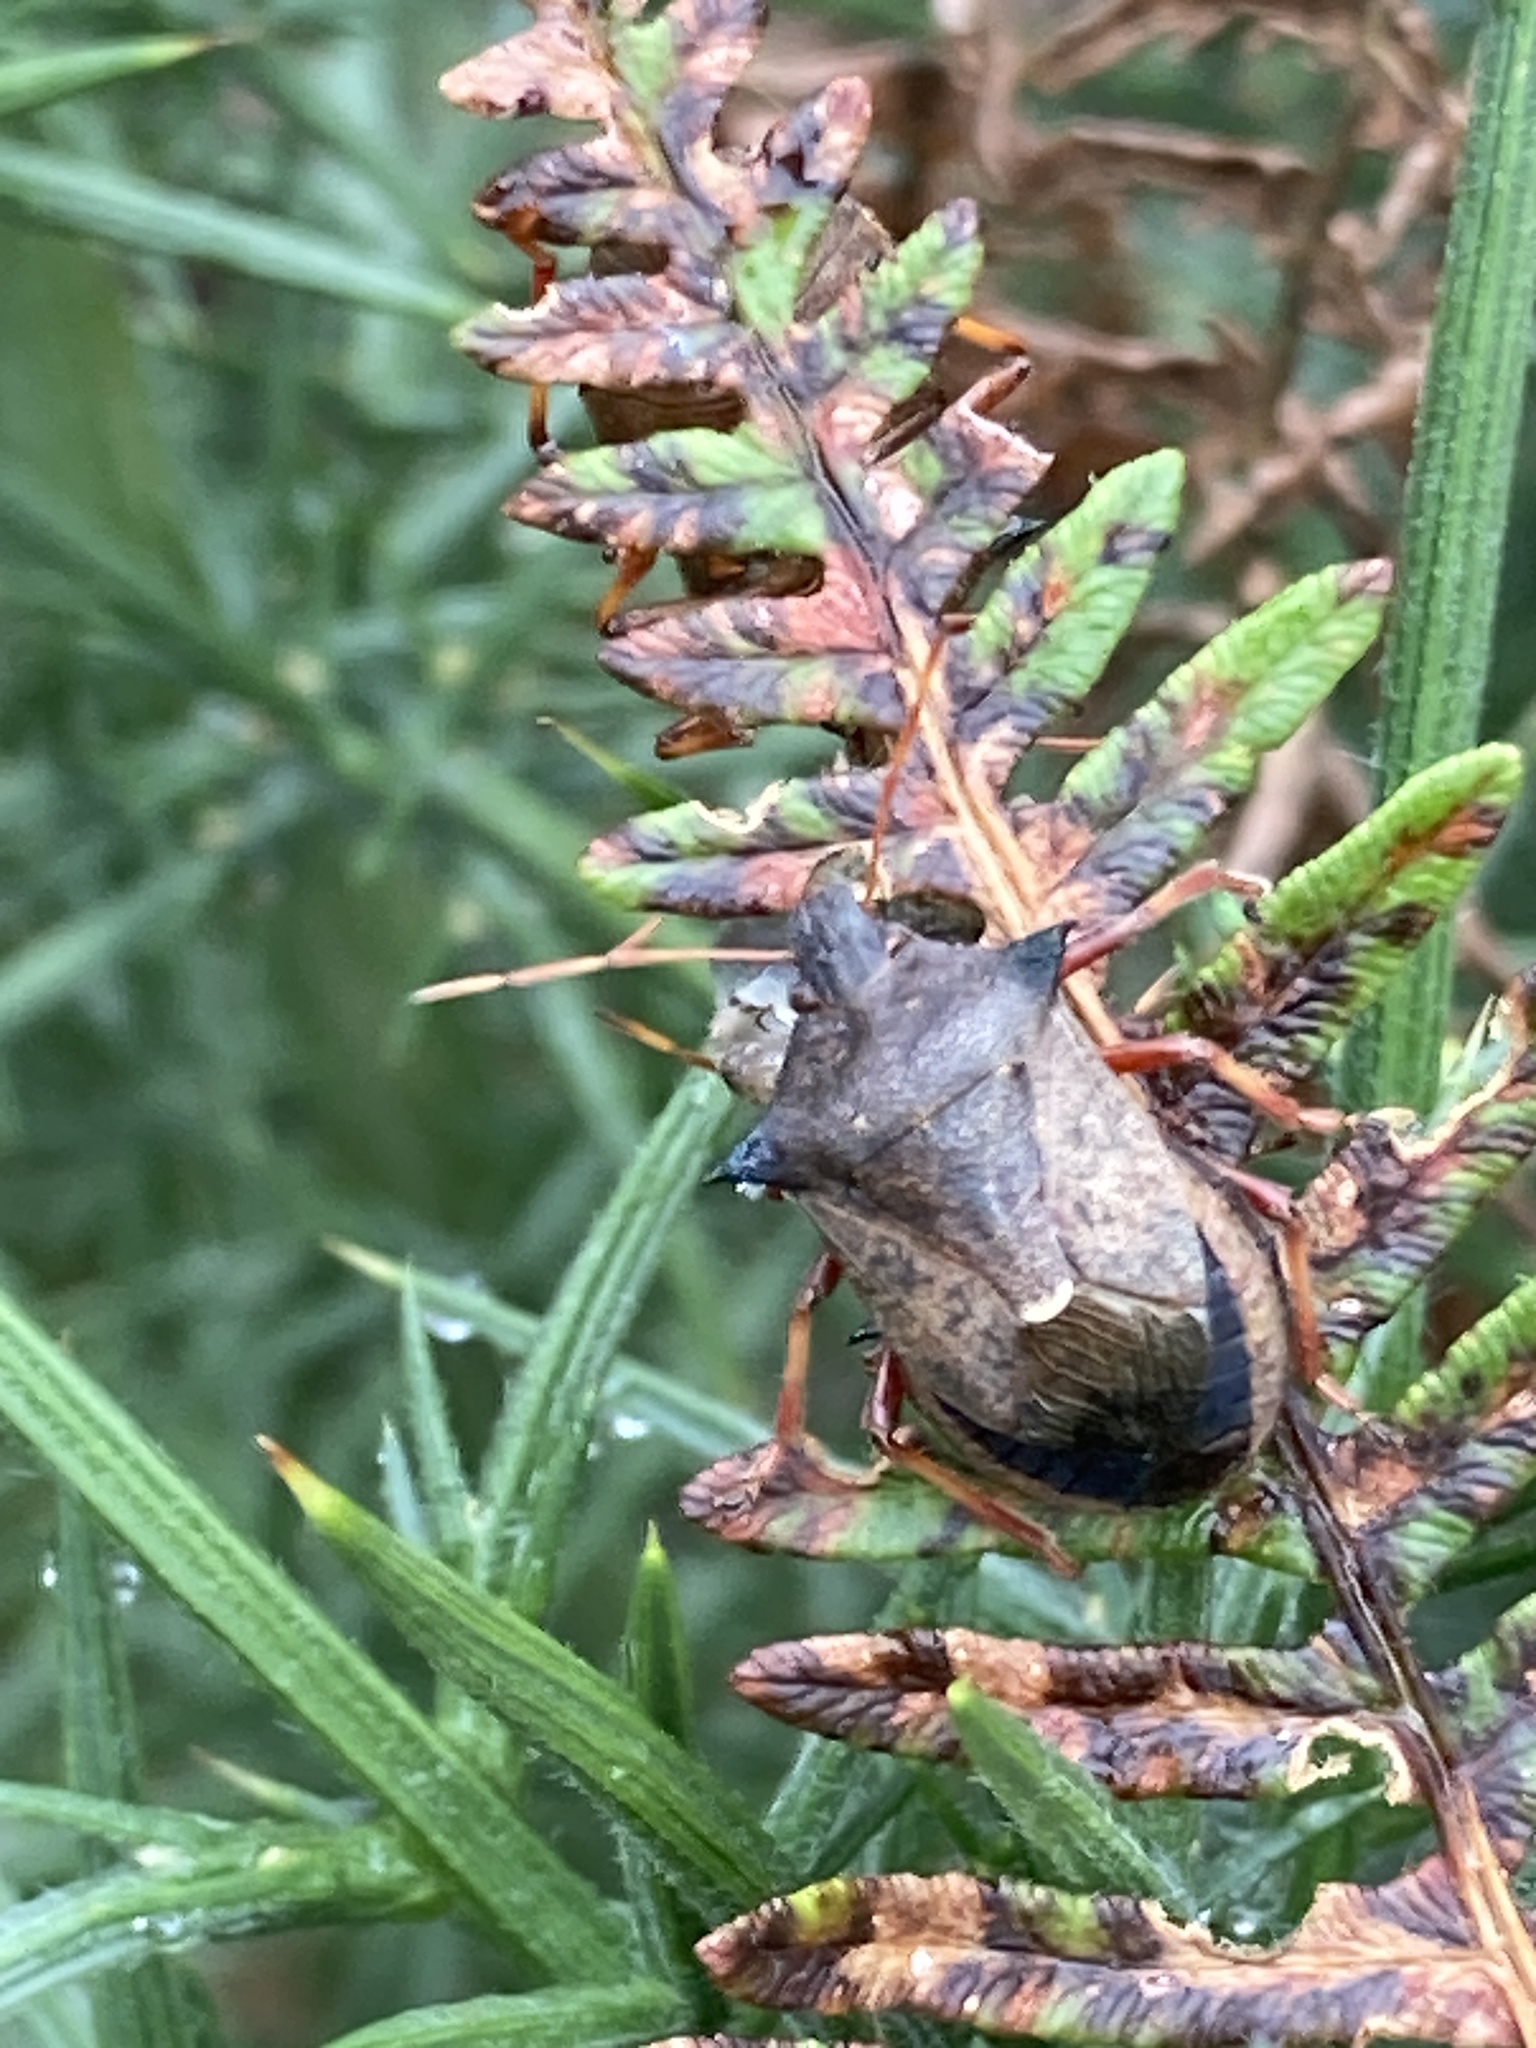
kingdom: Animalia
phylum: Arthropoda
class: Insecta
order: Hemiptera
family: Pentatomidae
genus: Picromerus
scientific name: Picromerus bidens
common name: Spiked shieldbug
